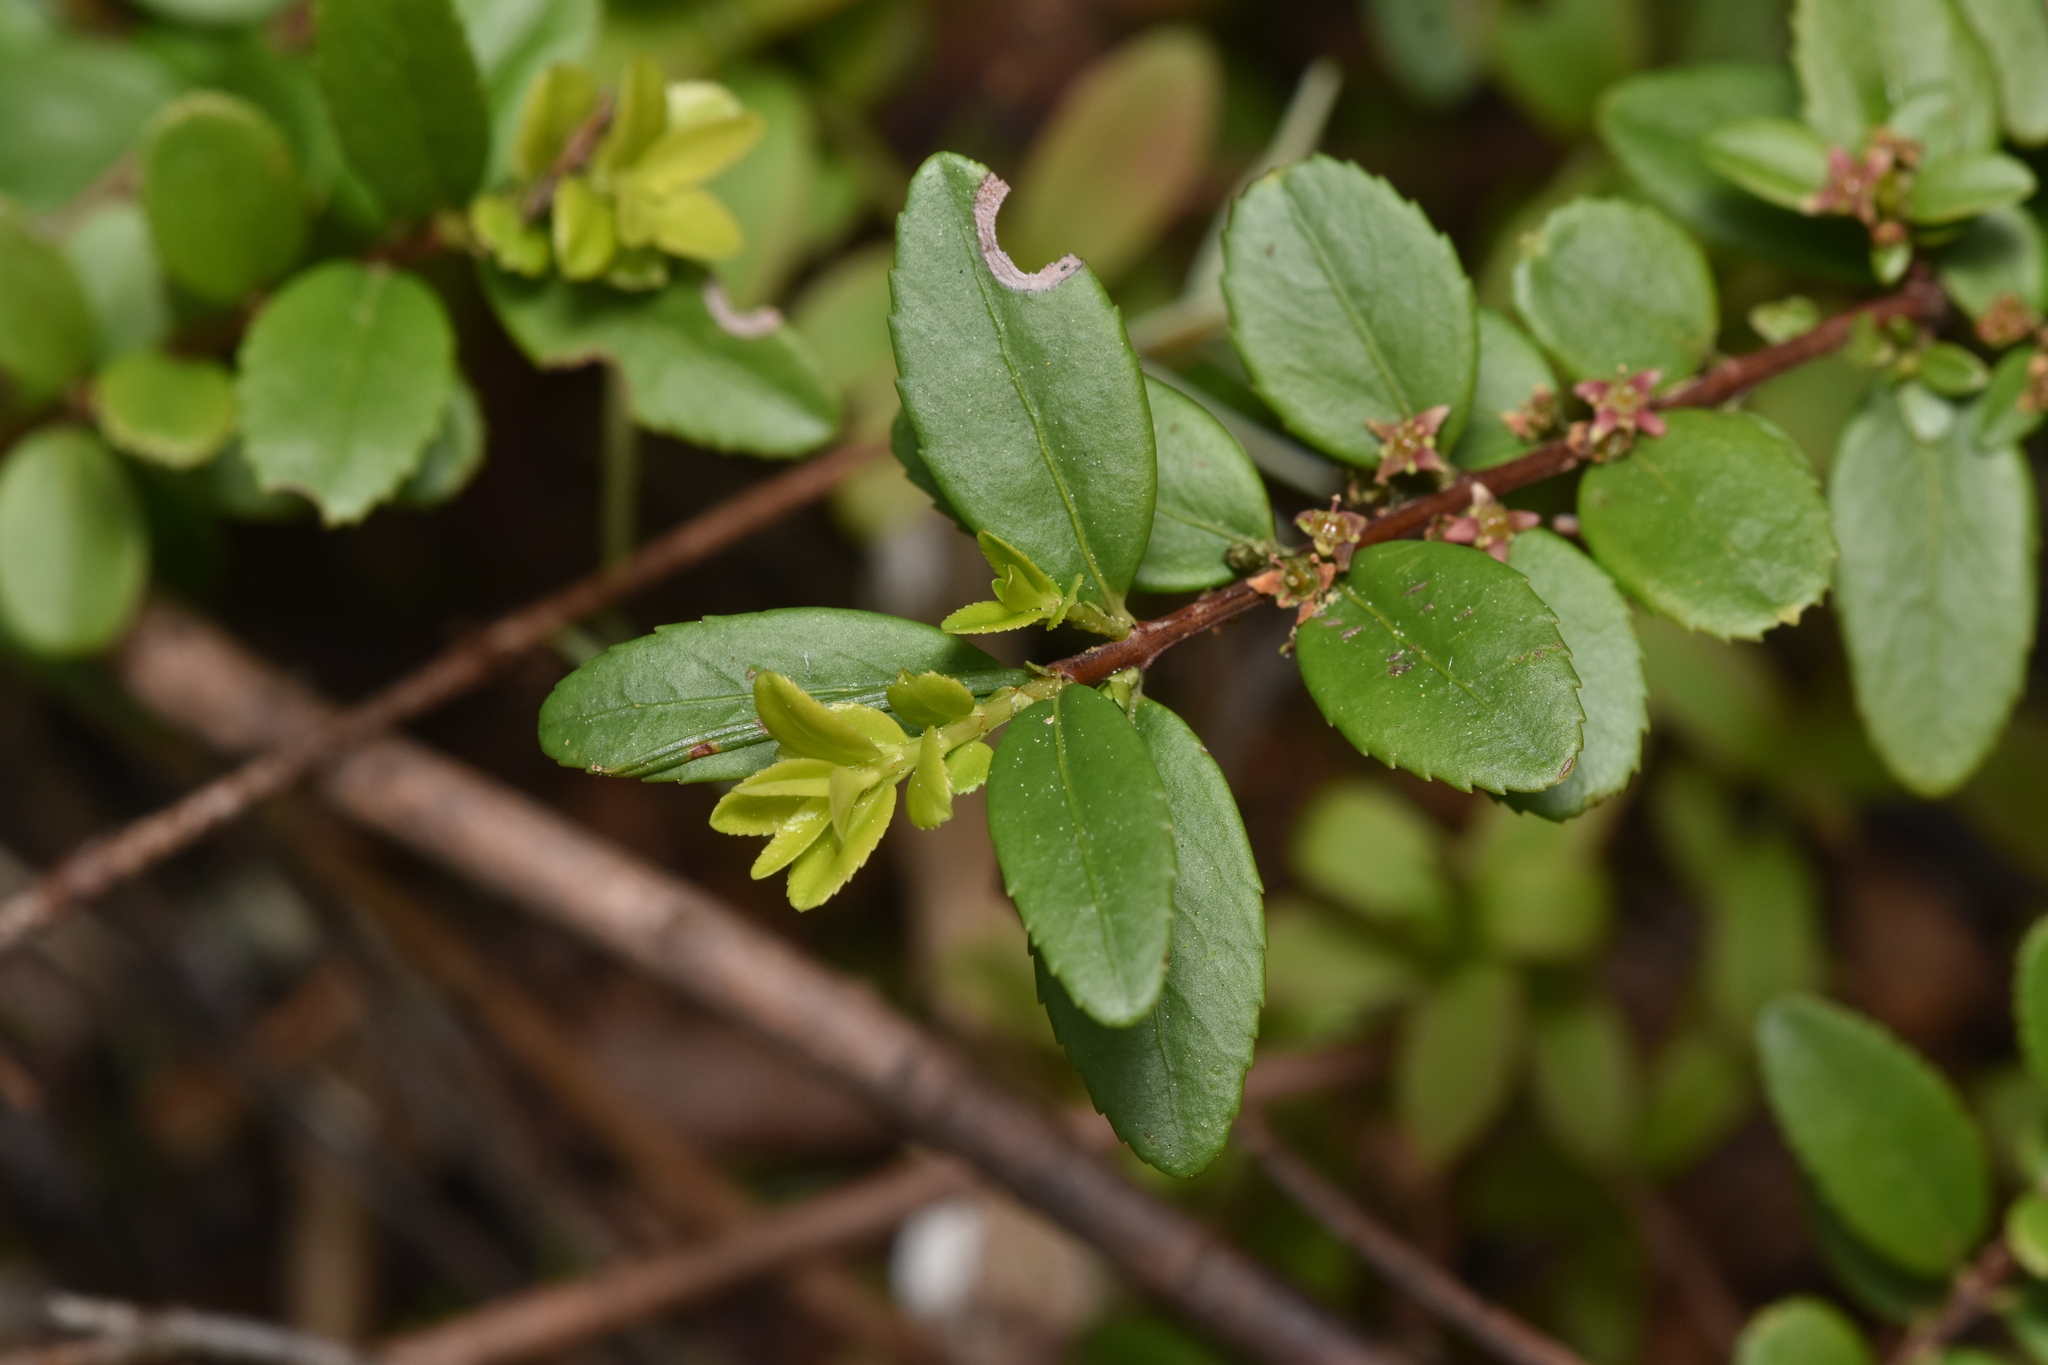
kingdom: Plantae
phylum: Tracheophyta
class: Magnoliopsida
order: Celastrales
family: Celastraceae
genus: Paxistima
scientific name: Paxistima myrsinites
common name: Mountain-lover
